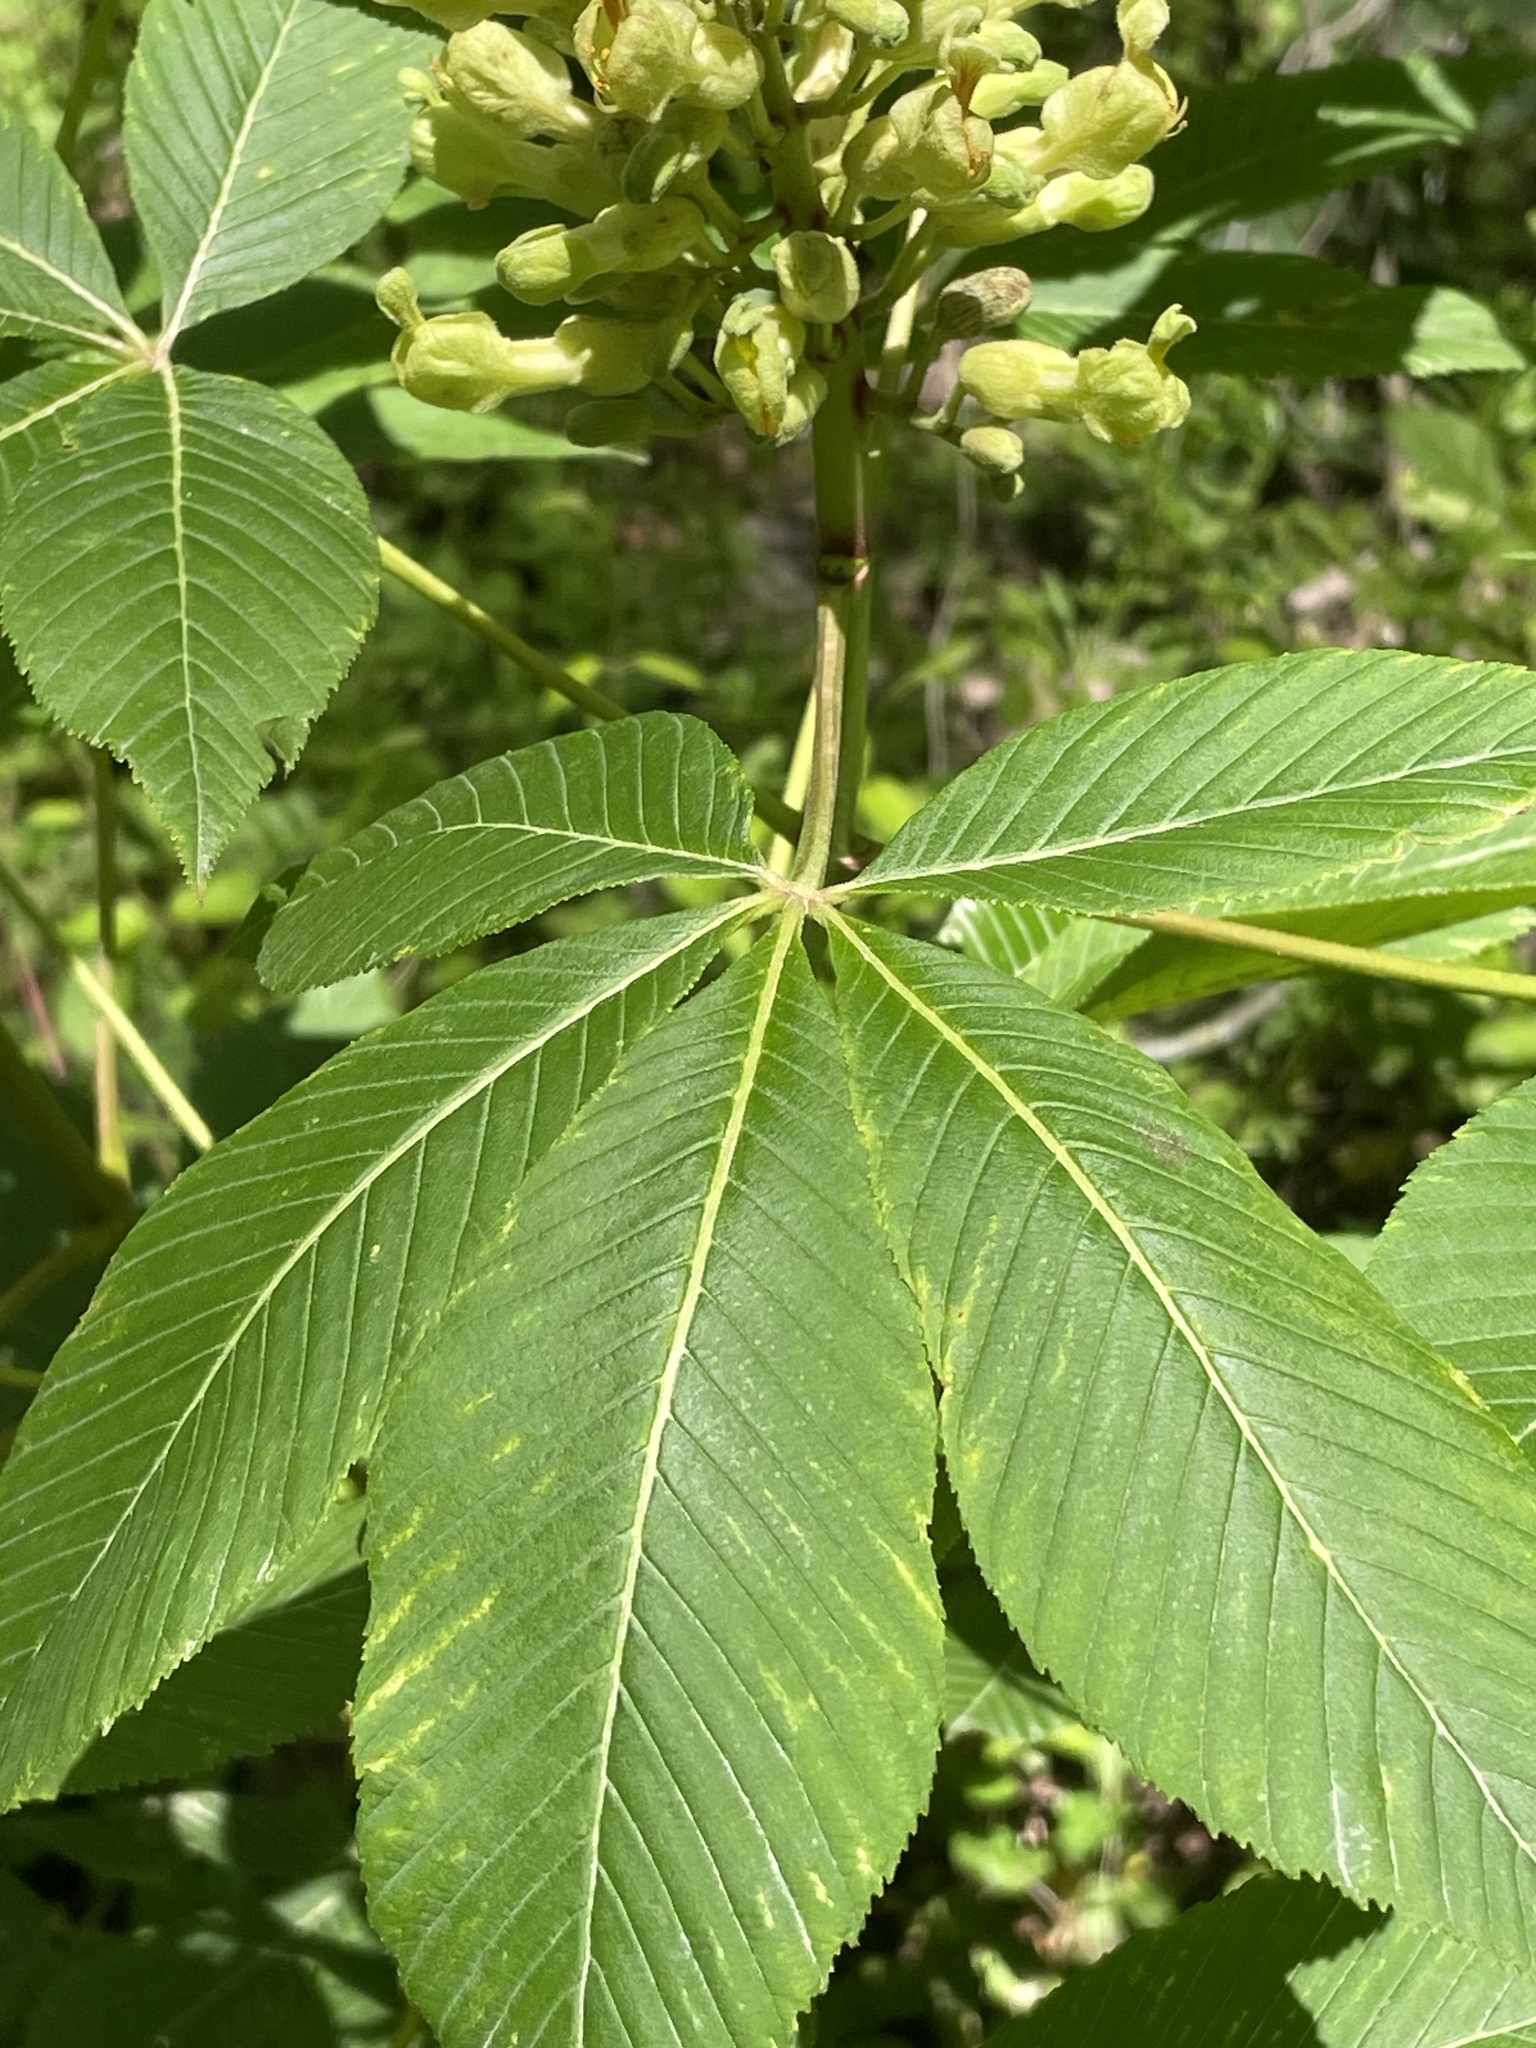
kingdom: Plantae
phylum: Tracheophyta
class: Magnoliopsida
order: Sapindales
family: Sapindaceae
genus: Aesculus
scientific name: Aesculus sylvatica
